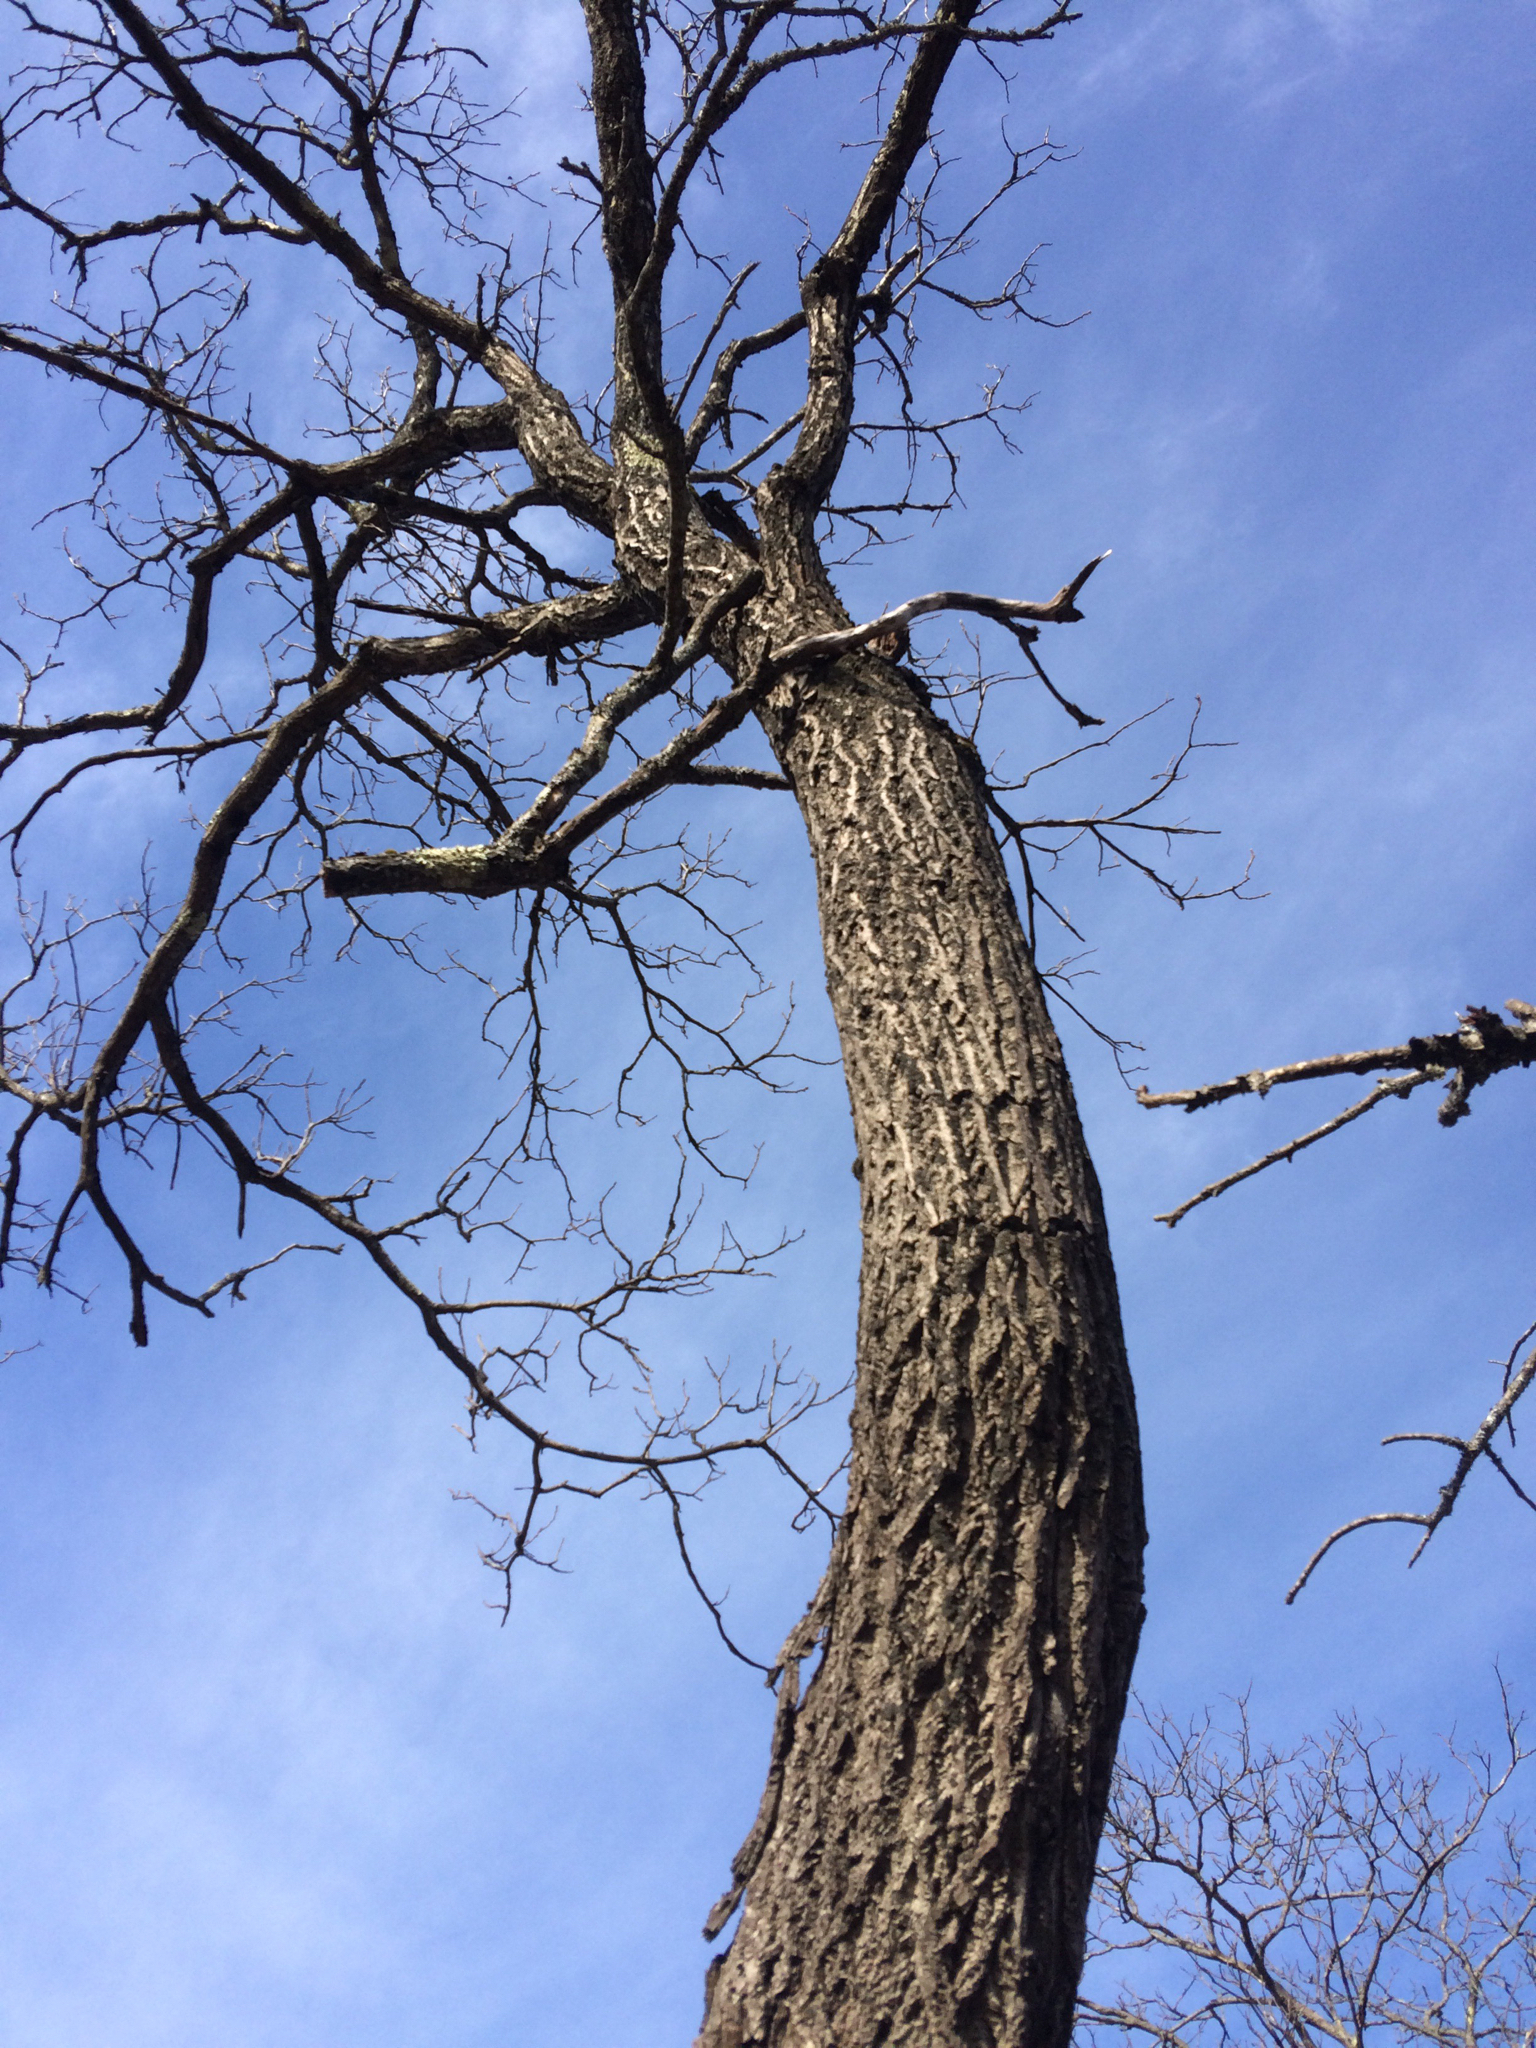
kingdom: Plantae
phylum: Tracheophyta
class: Magnoliopsida
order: Fagales
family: Juglandaceae
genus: Juglans
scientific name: Juglans cinerea
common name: Butternut
